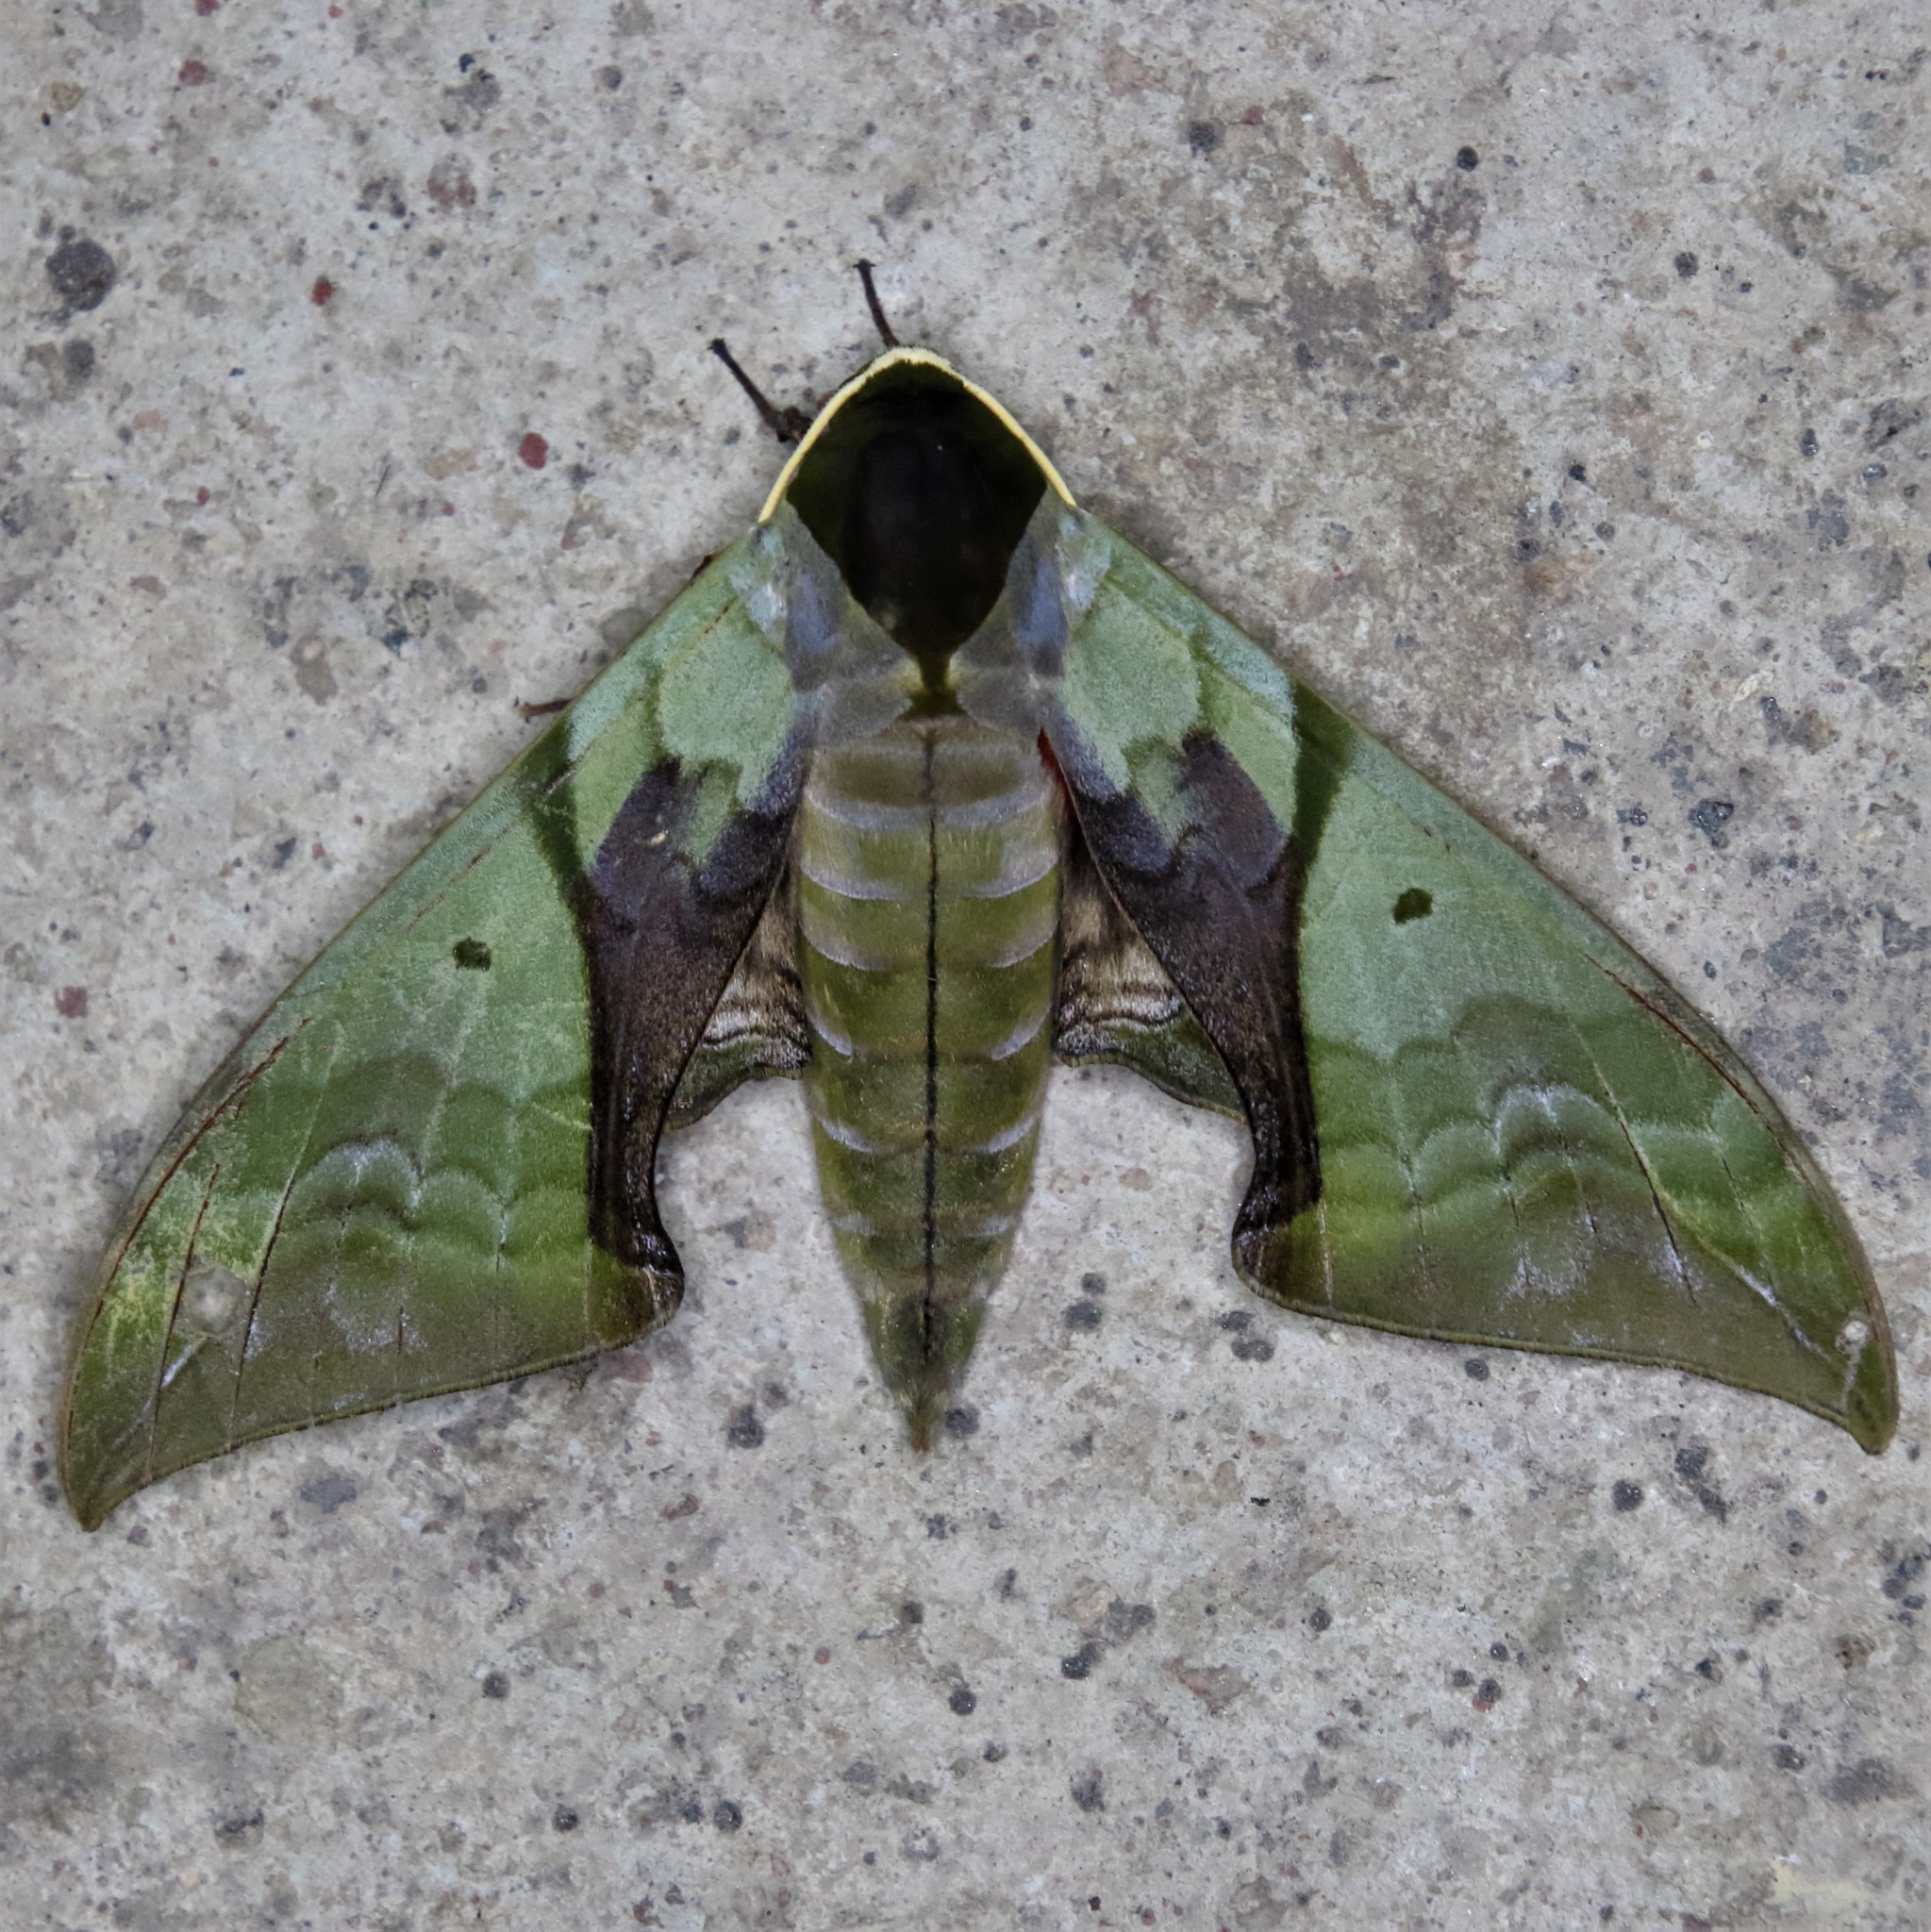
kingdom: Animalia
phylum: Arthropoda
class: Insecta
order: Lepidoptera
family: Sphingidae
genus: Callambulyx
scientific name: Callambulyx rubricosa
